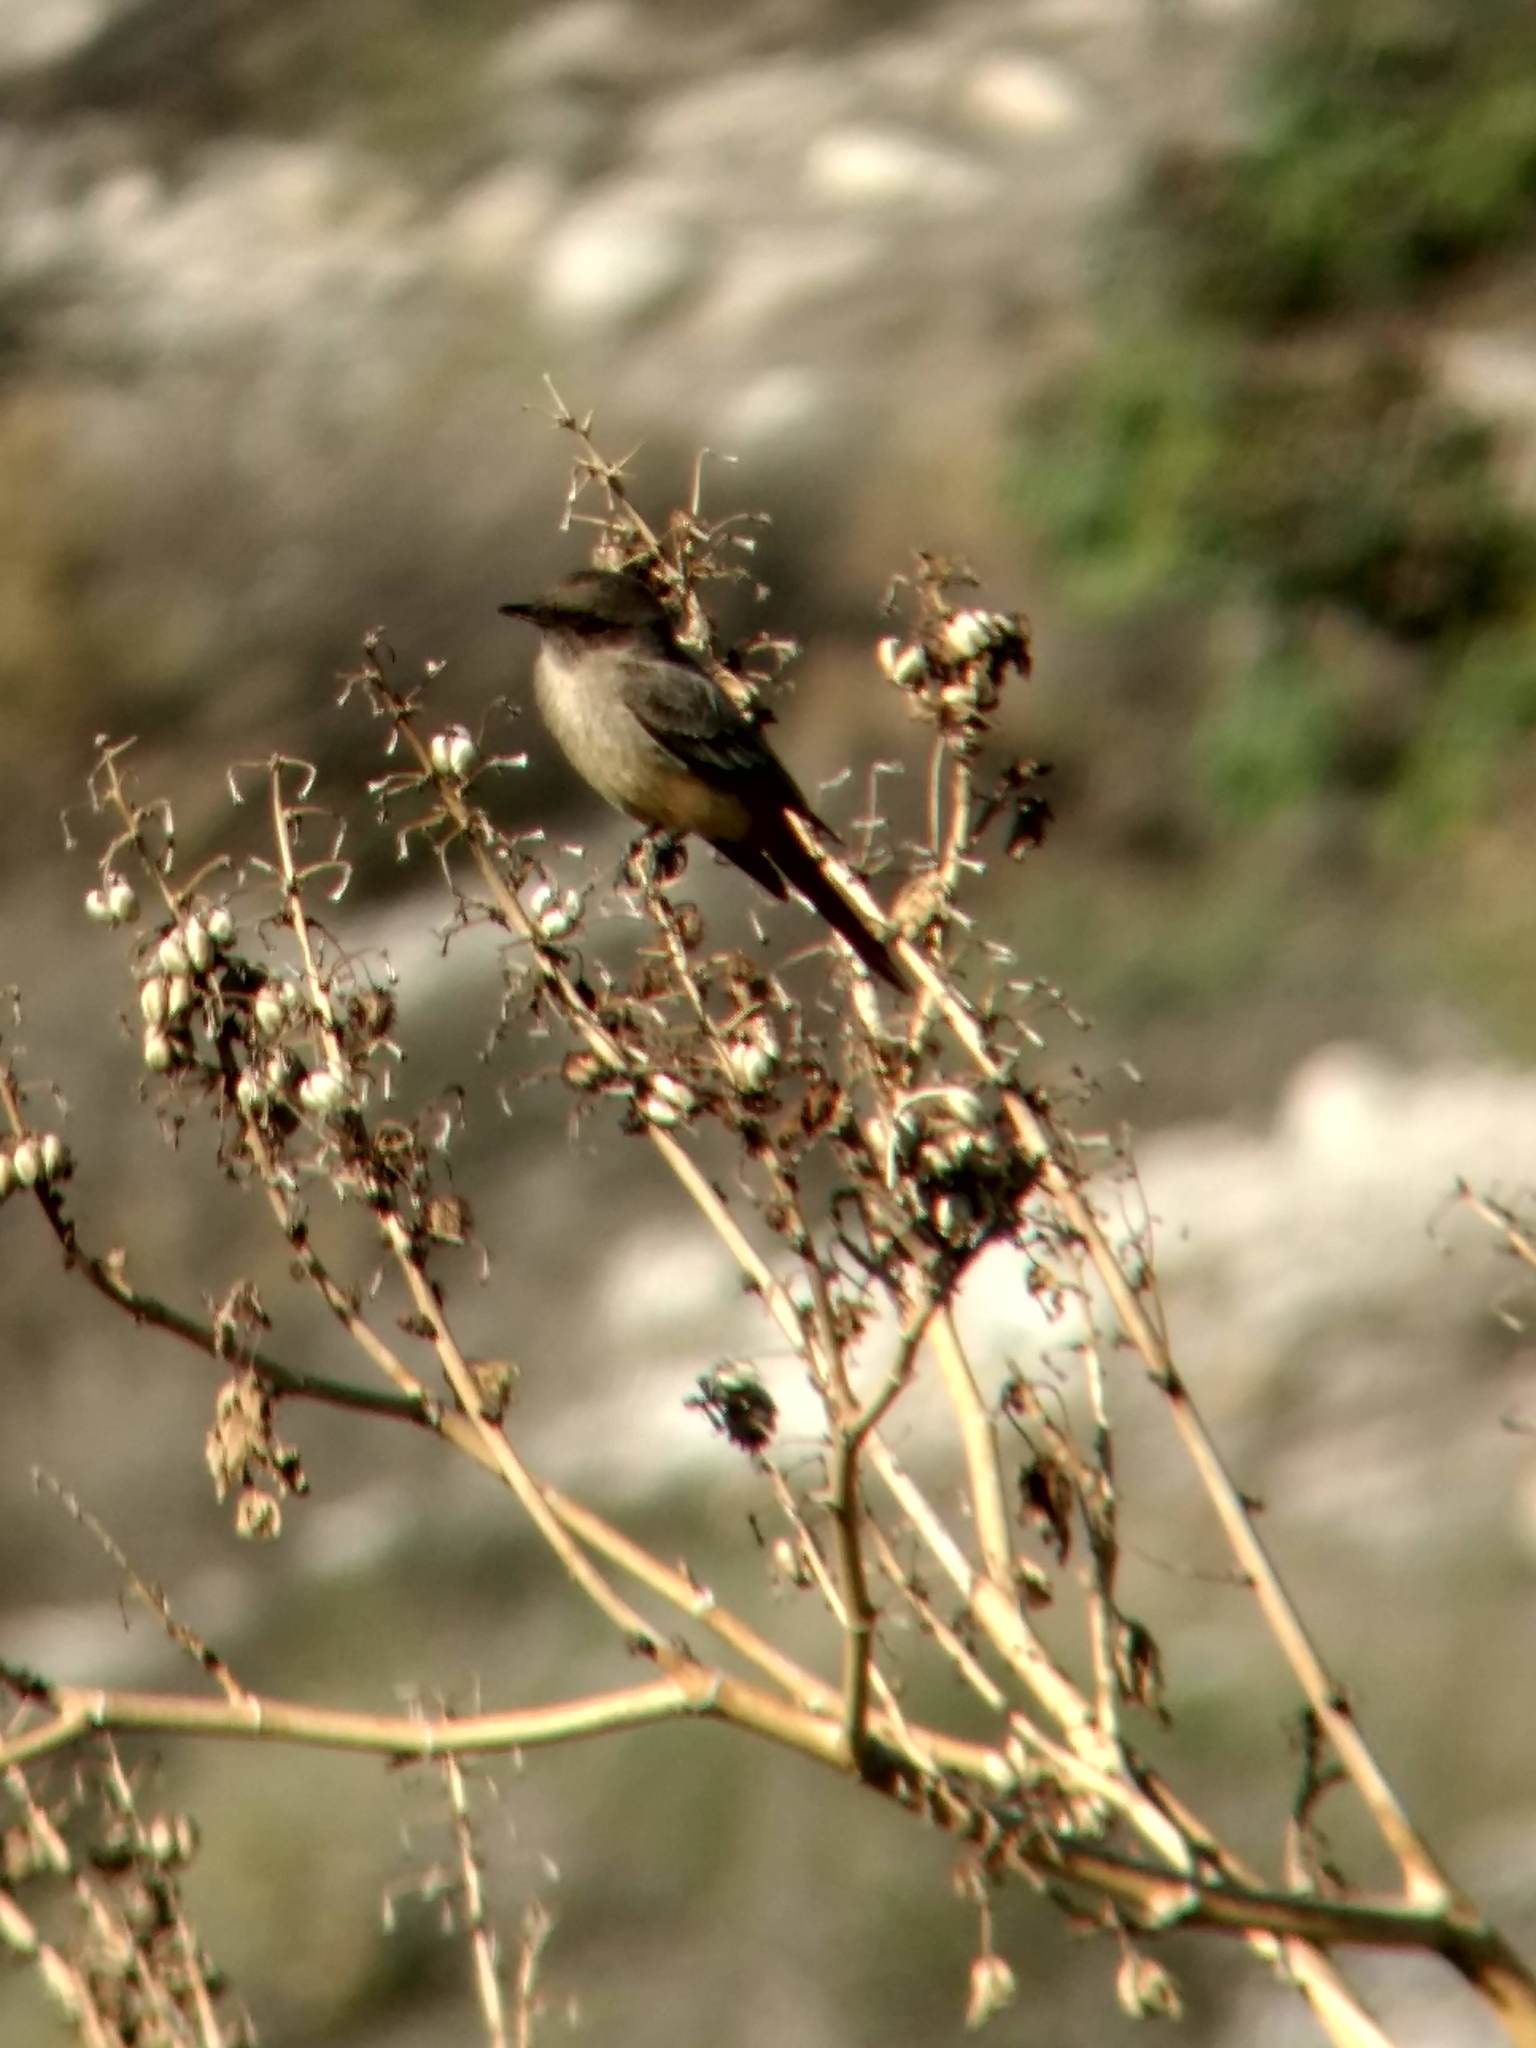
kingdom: Animalia
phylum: Chordata
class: Aves
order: Passeriformes
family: Tyrannidae
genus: Sayornis
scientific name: Sayornis saya
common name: Say's phoebe
